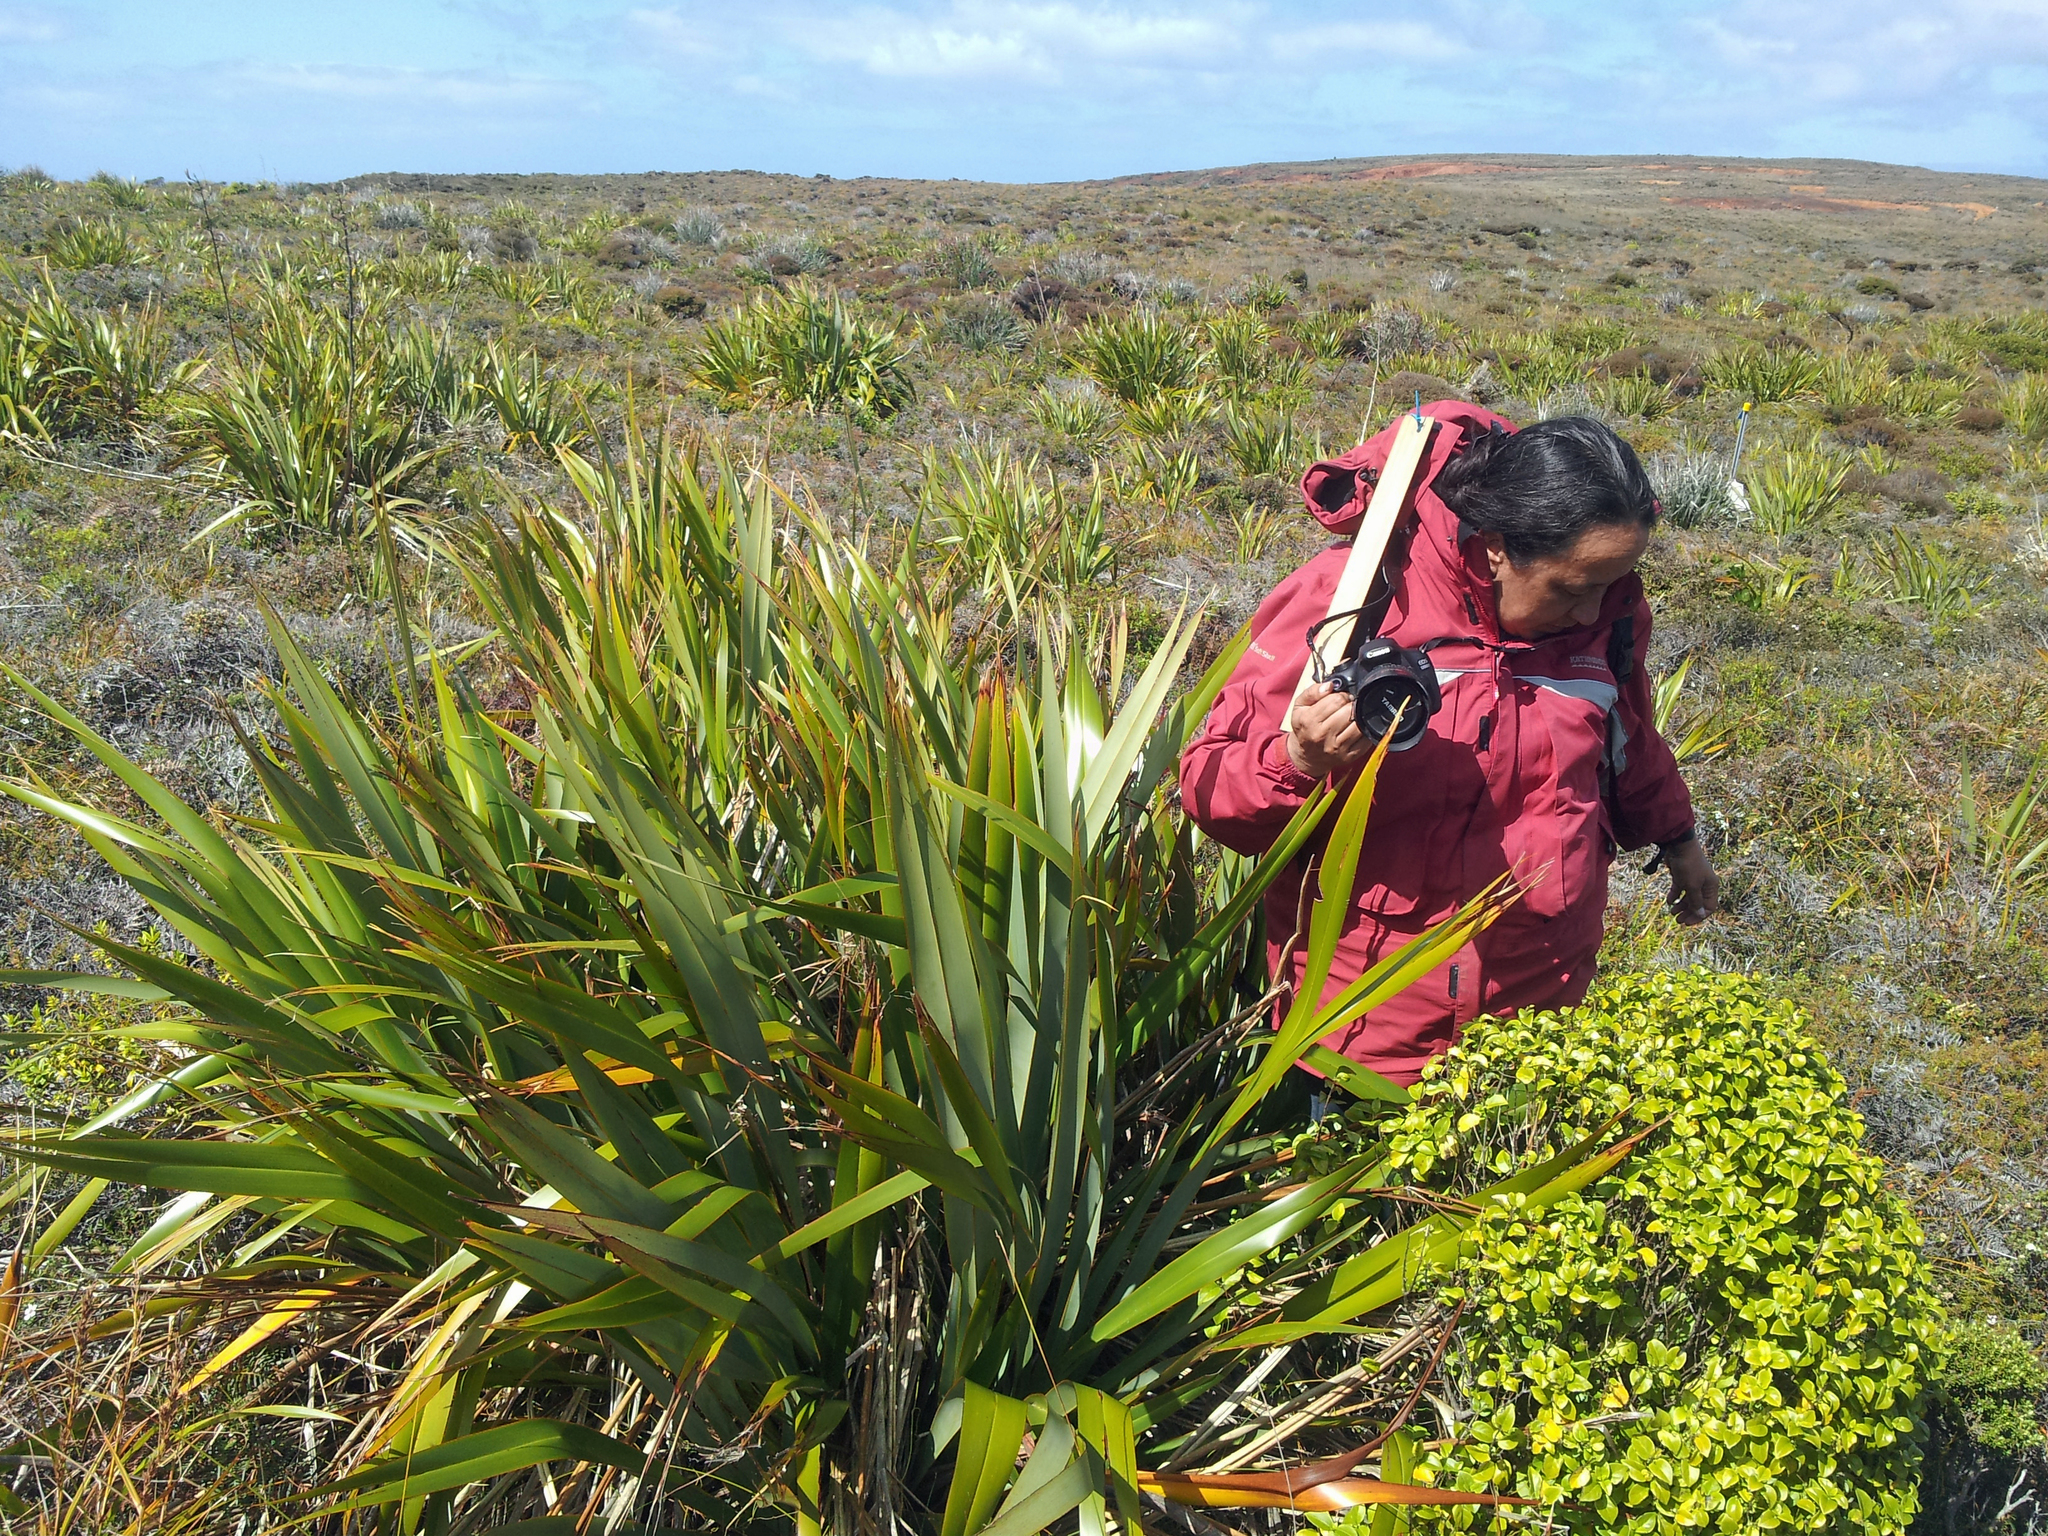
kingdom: Plantae
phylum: Tracheophyta
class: Liliopsida
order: Asparagales
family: Asphodelaceae
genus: Phormium
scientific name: Phormium tenax
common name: New zealand flax
